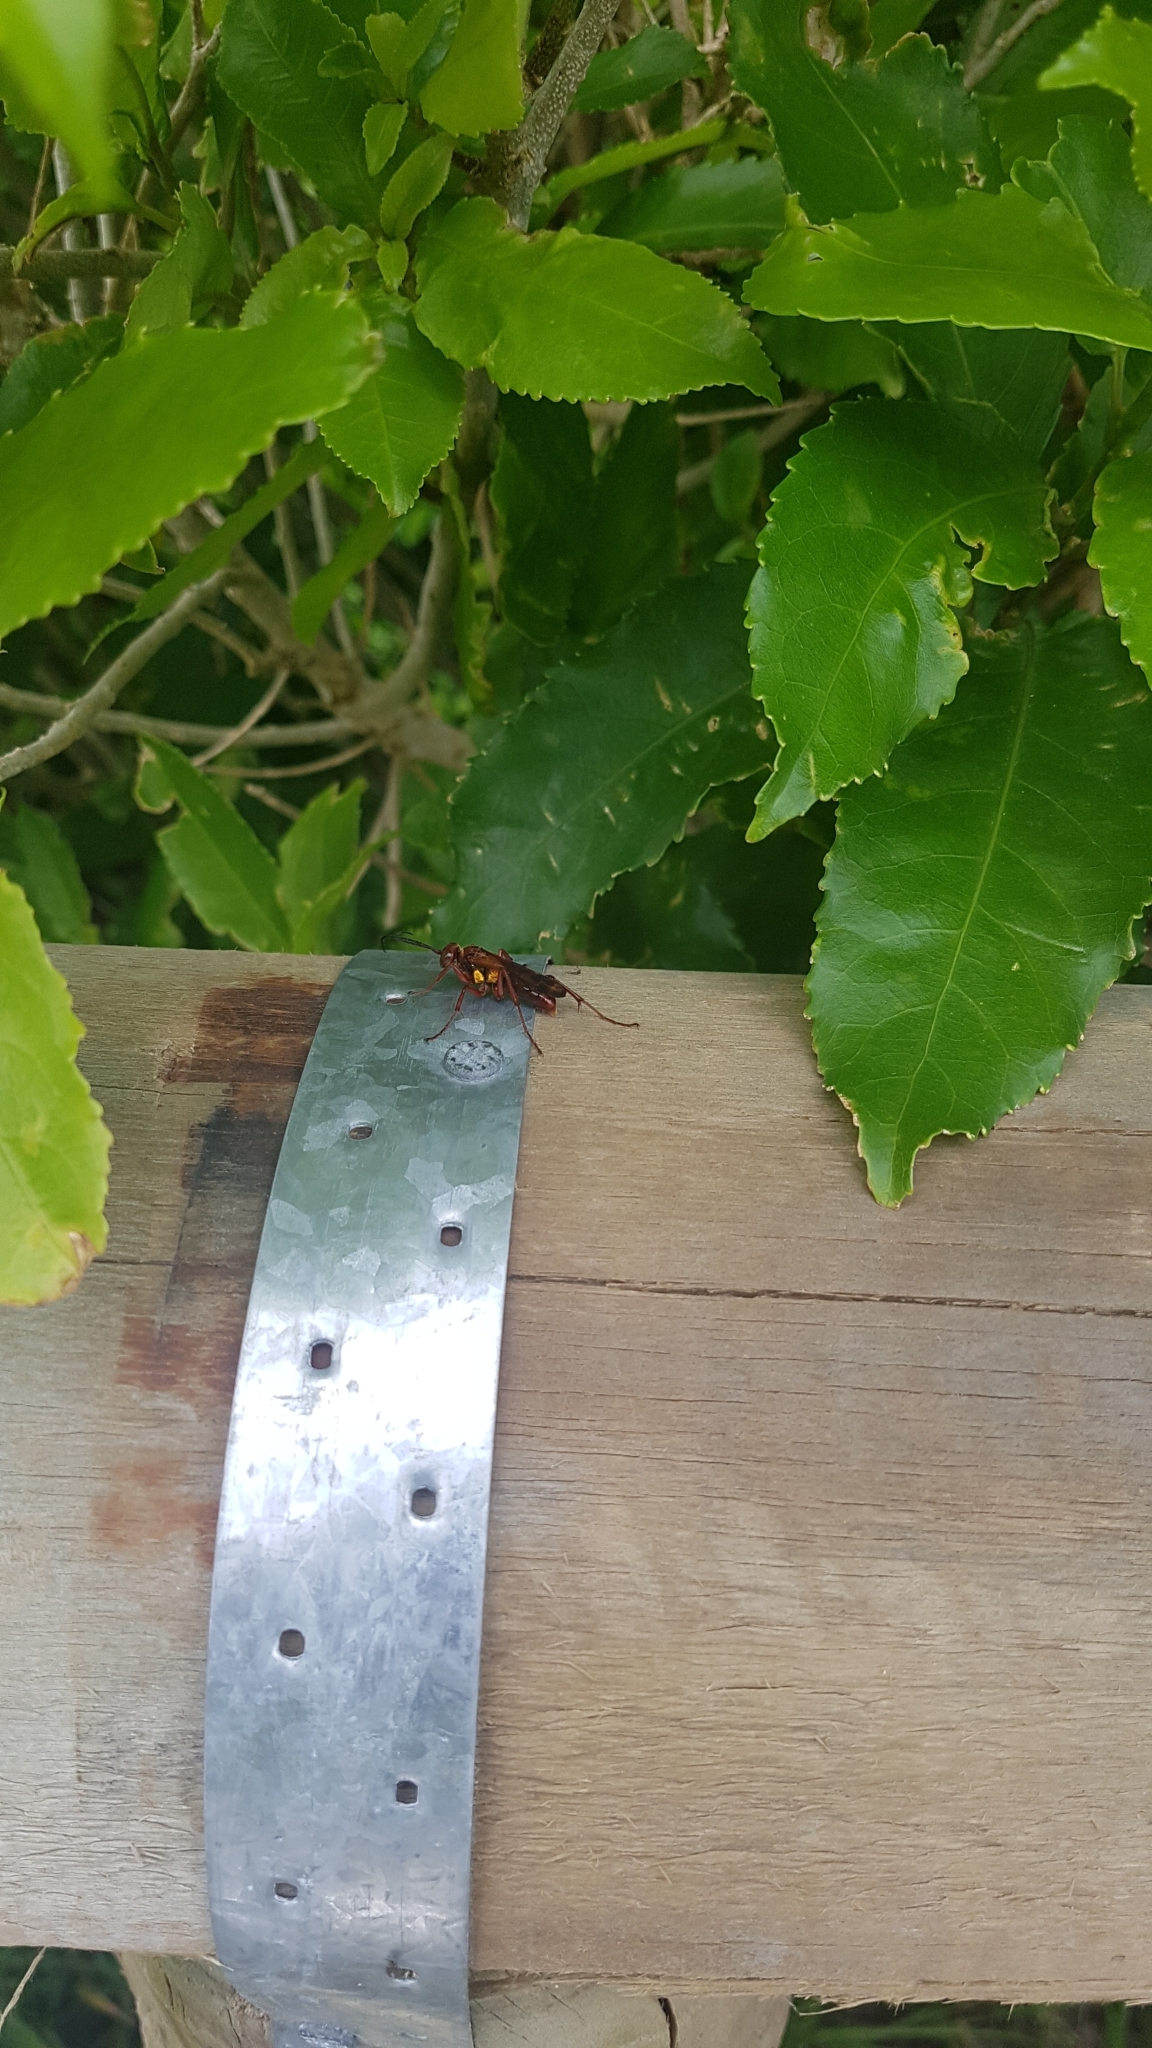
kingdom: Animalia
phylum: Arthropoda
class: Insecta
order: Hymenoptera
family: Pompilidae
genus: Sphictostethus
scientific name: Sphictostethus nitidus
